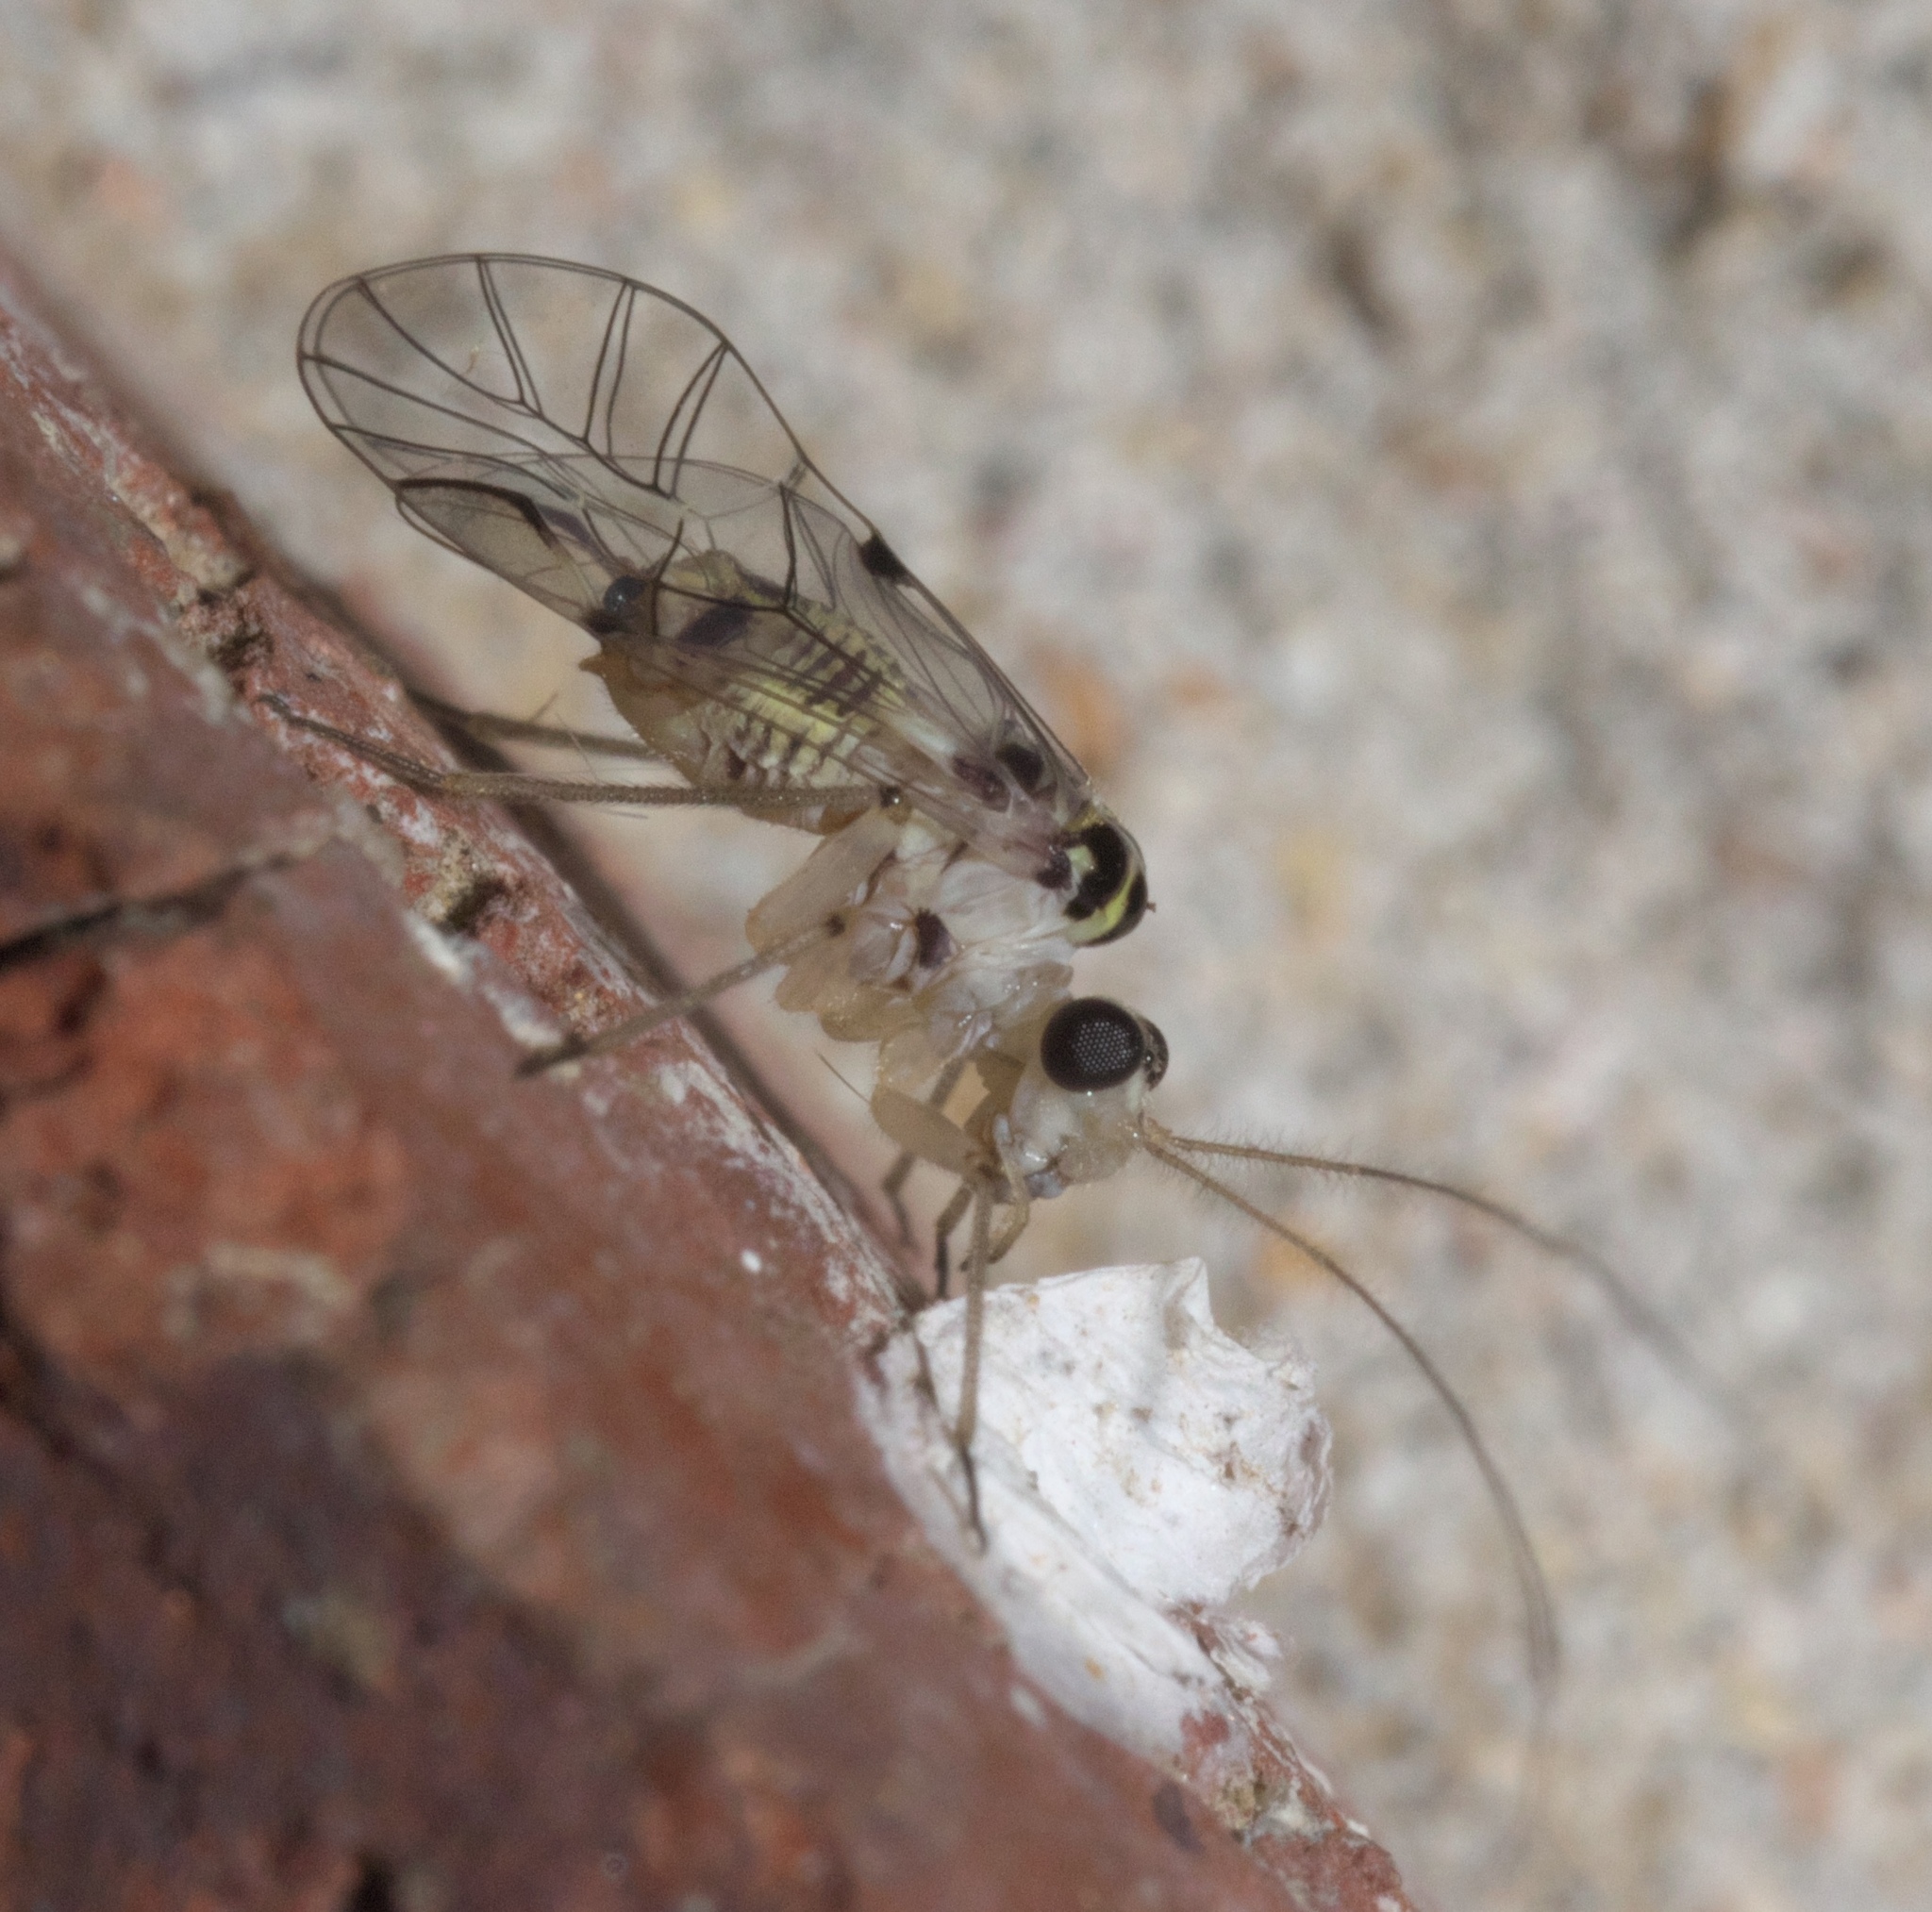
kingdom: Animalia
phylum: Arthropoda
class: Insecta
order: Psocodea
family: Psocidae
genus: Metylophorus
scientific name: Metylophorus purus
